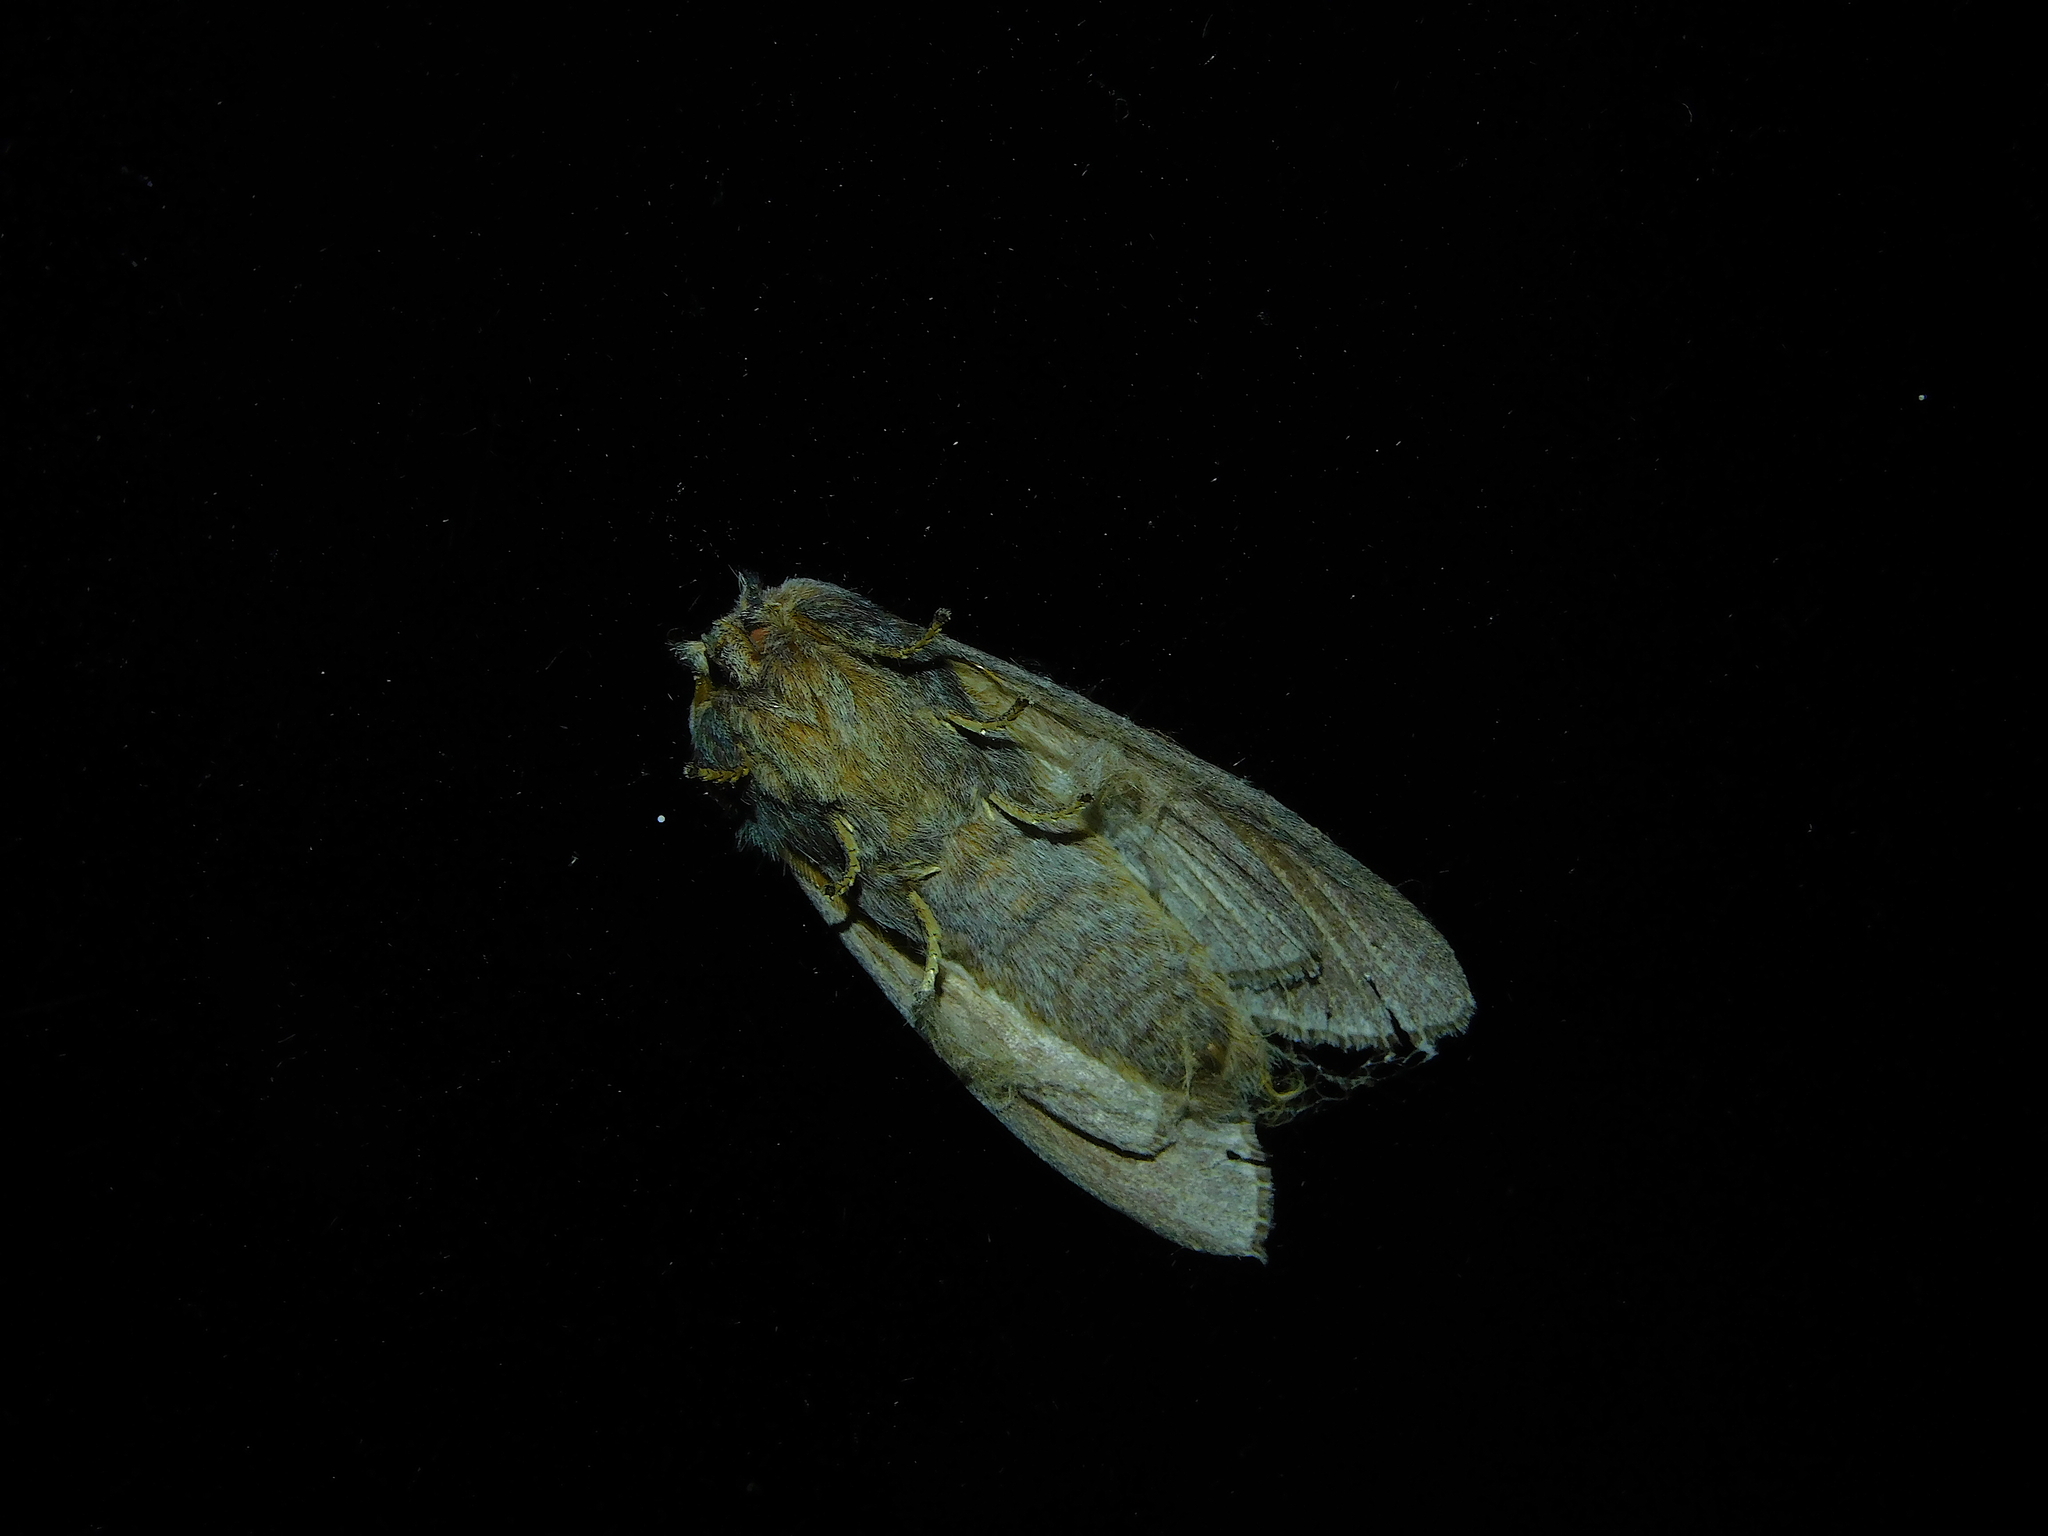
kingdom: Animalia
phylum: Arthropoda
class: Insecta
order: Lepidoptera
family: Notodontidae
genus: Hylaeora
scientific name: Hylaeora caustopis
